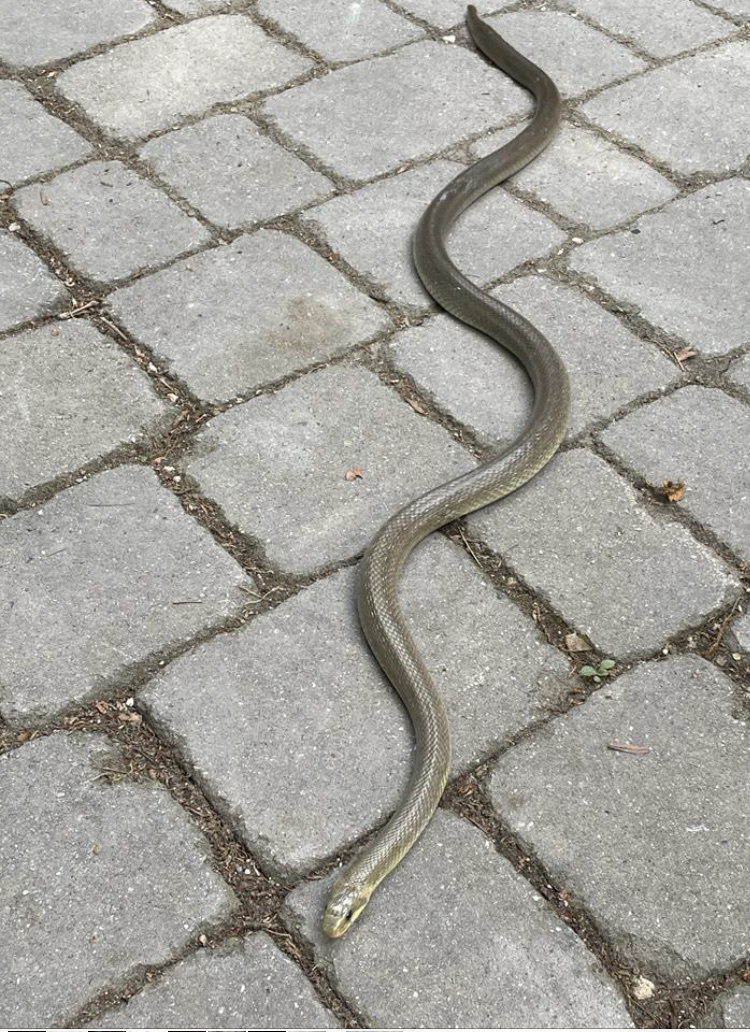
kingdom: Animalia
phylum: Chordata
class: Squamata
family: Colubridae
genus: Zamenis
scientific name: Zamenis longissimus
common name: Aesculapean snake
